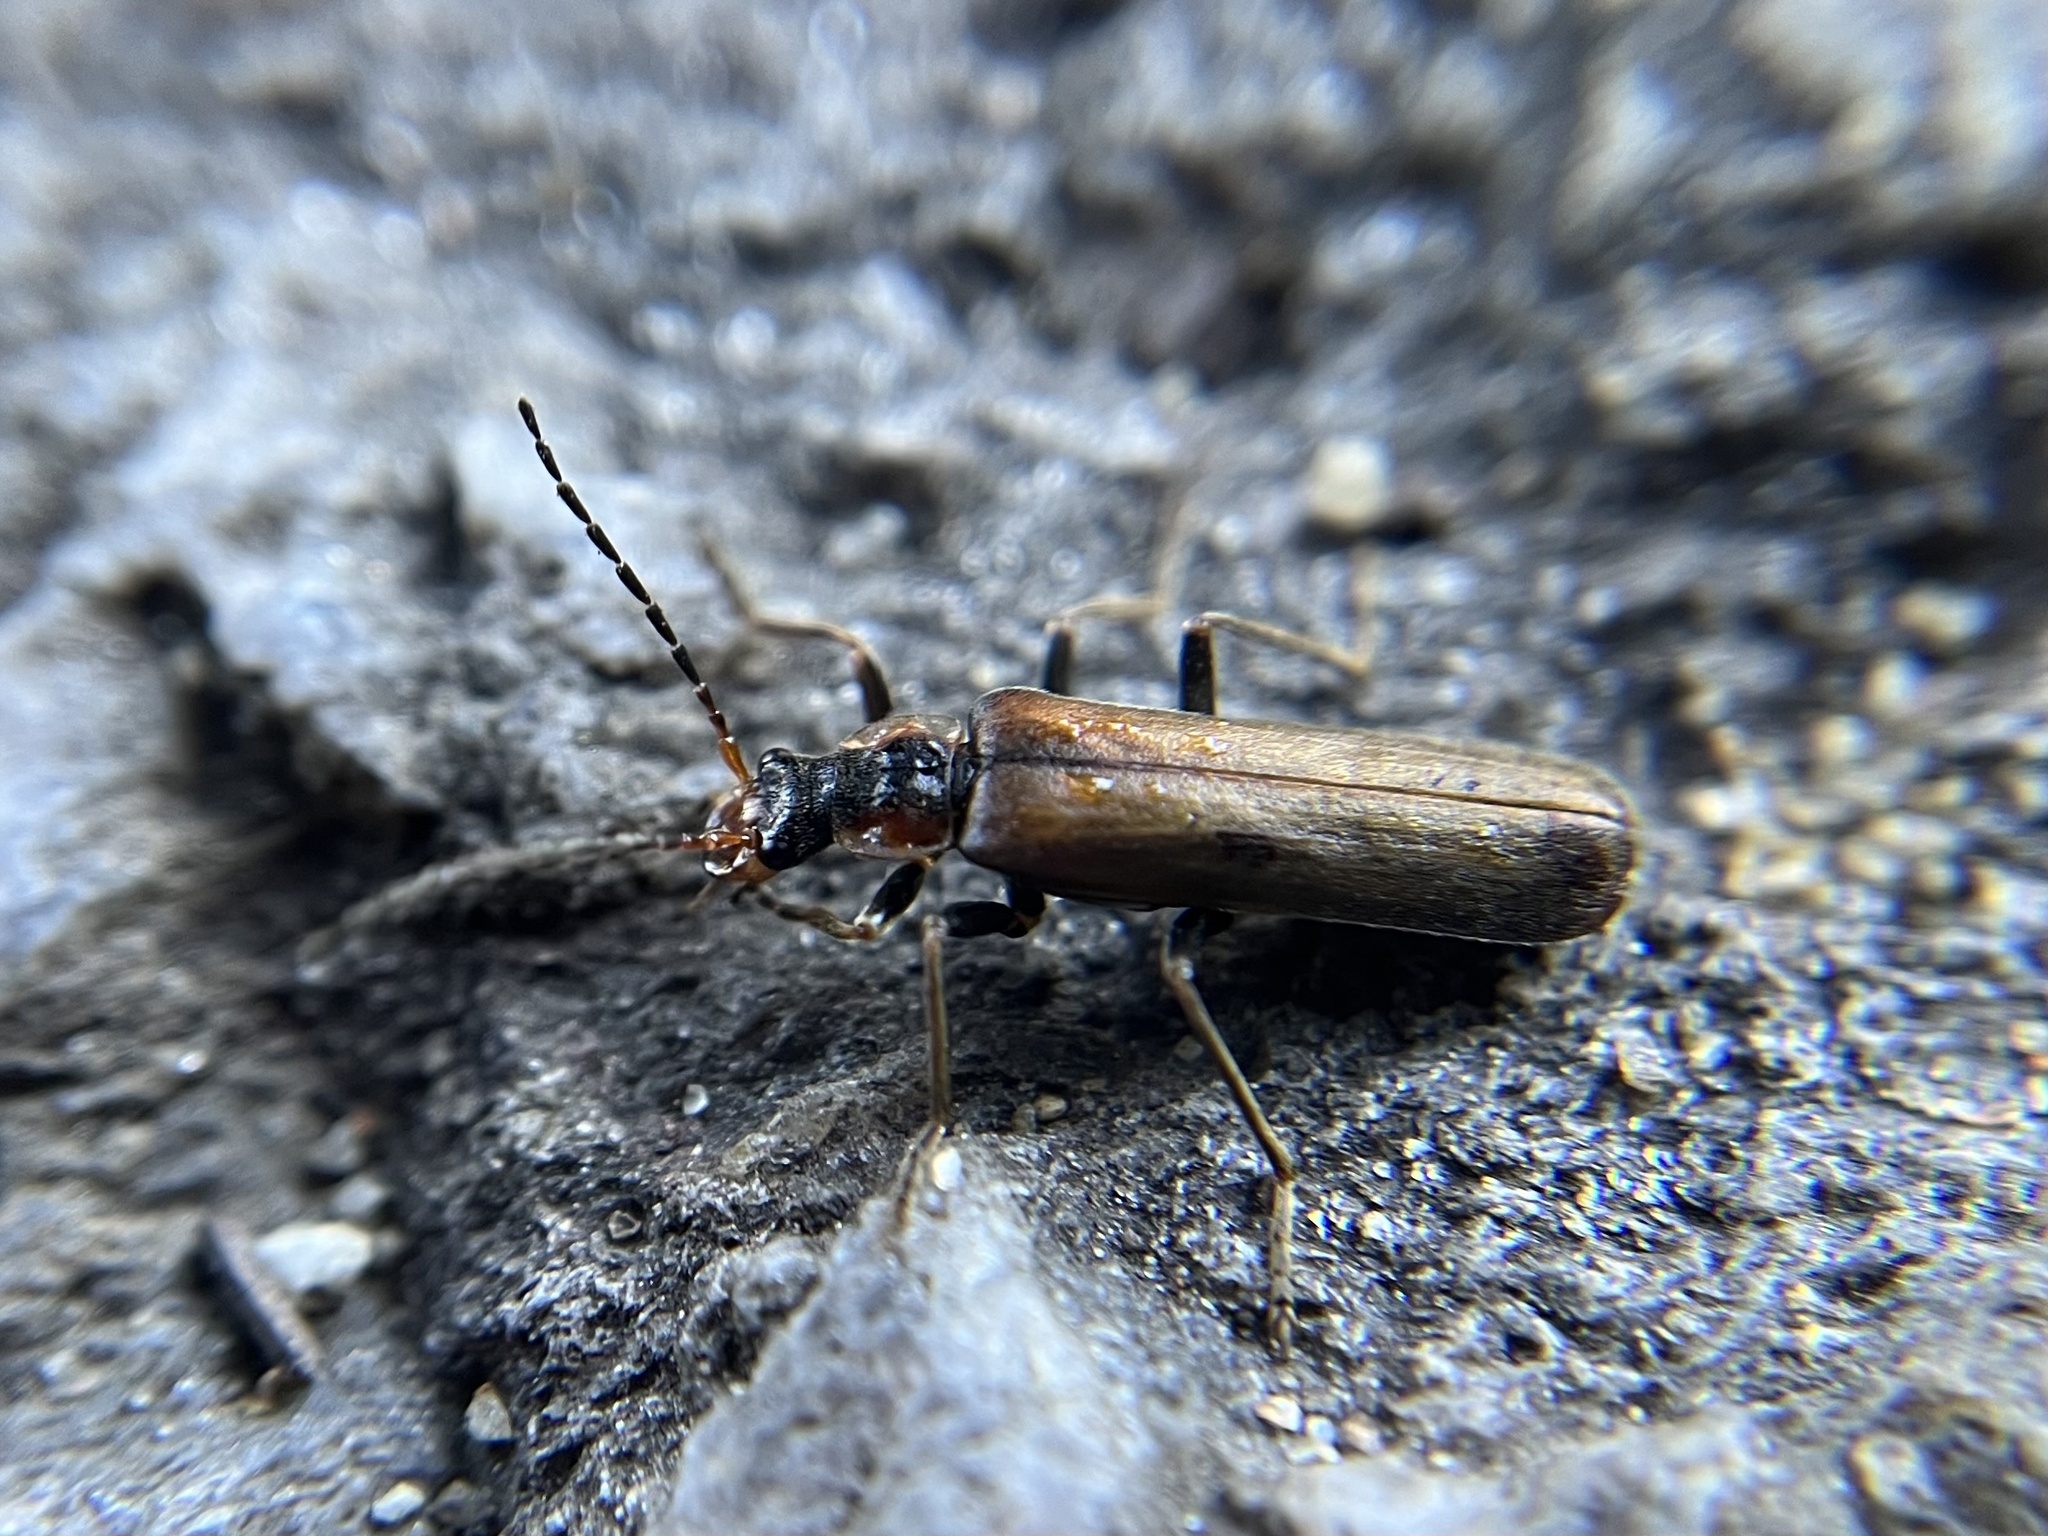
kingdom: Animalia
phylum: Arthropoda
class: Insecta
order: Coleoptera
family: Cantharidae
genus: Podabrus
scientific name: Podabrus alpinus
